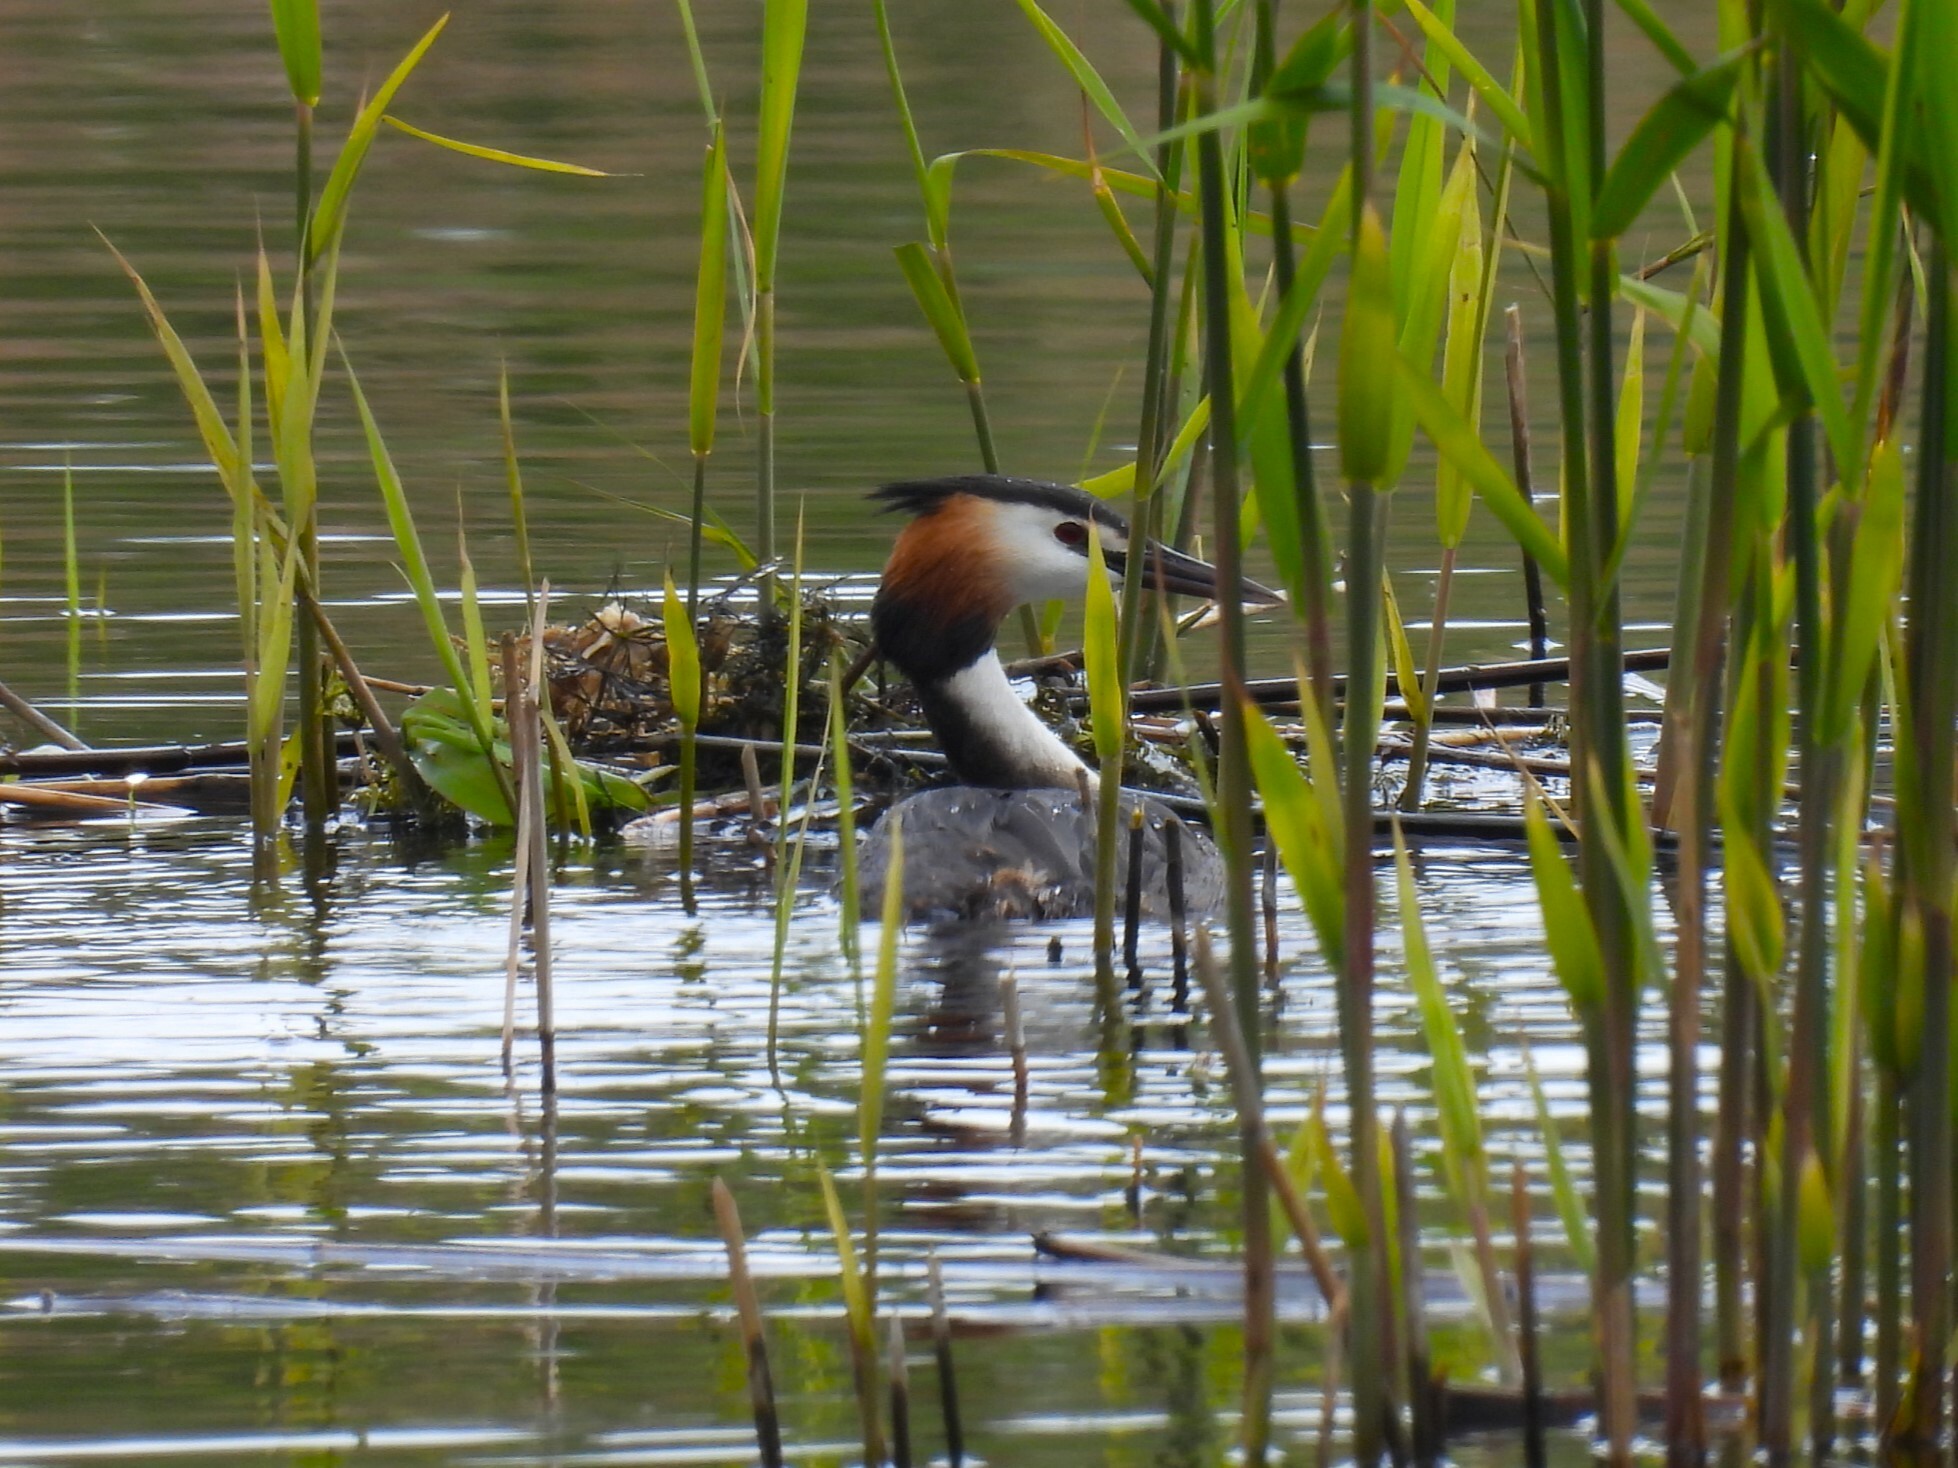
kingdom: Animalia
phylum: Chordata
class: Aves
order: Podicipediformes
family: Podicipedidae
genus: Podiceps
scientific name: Podiceps cristatus
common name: Great crested grebe
